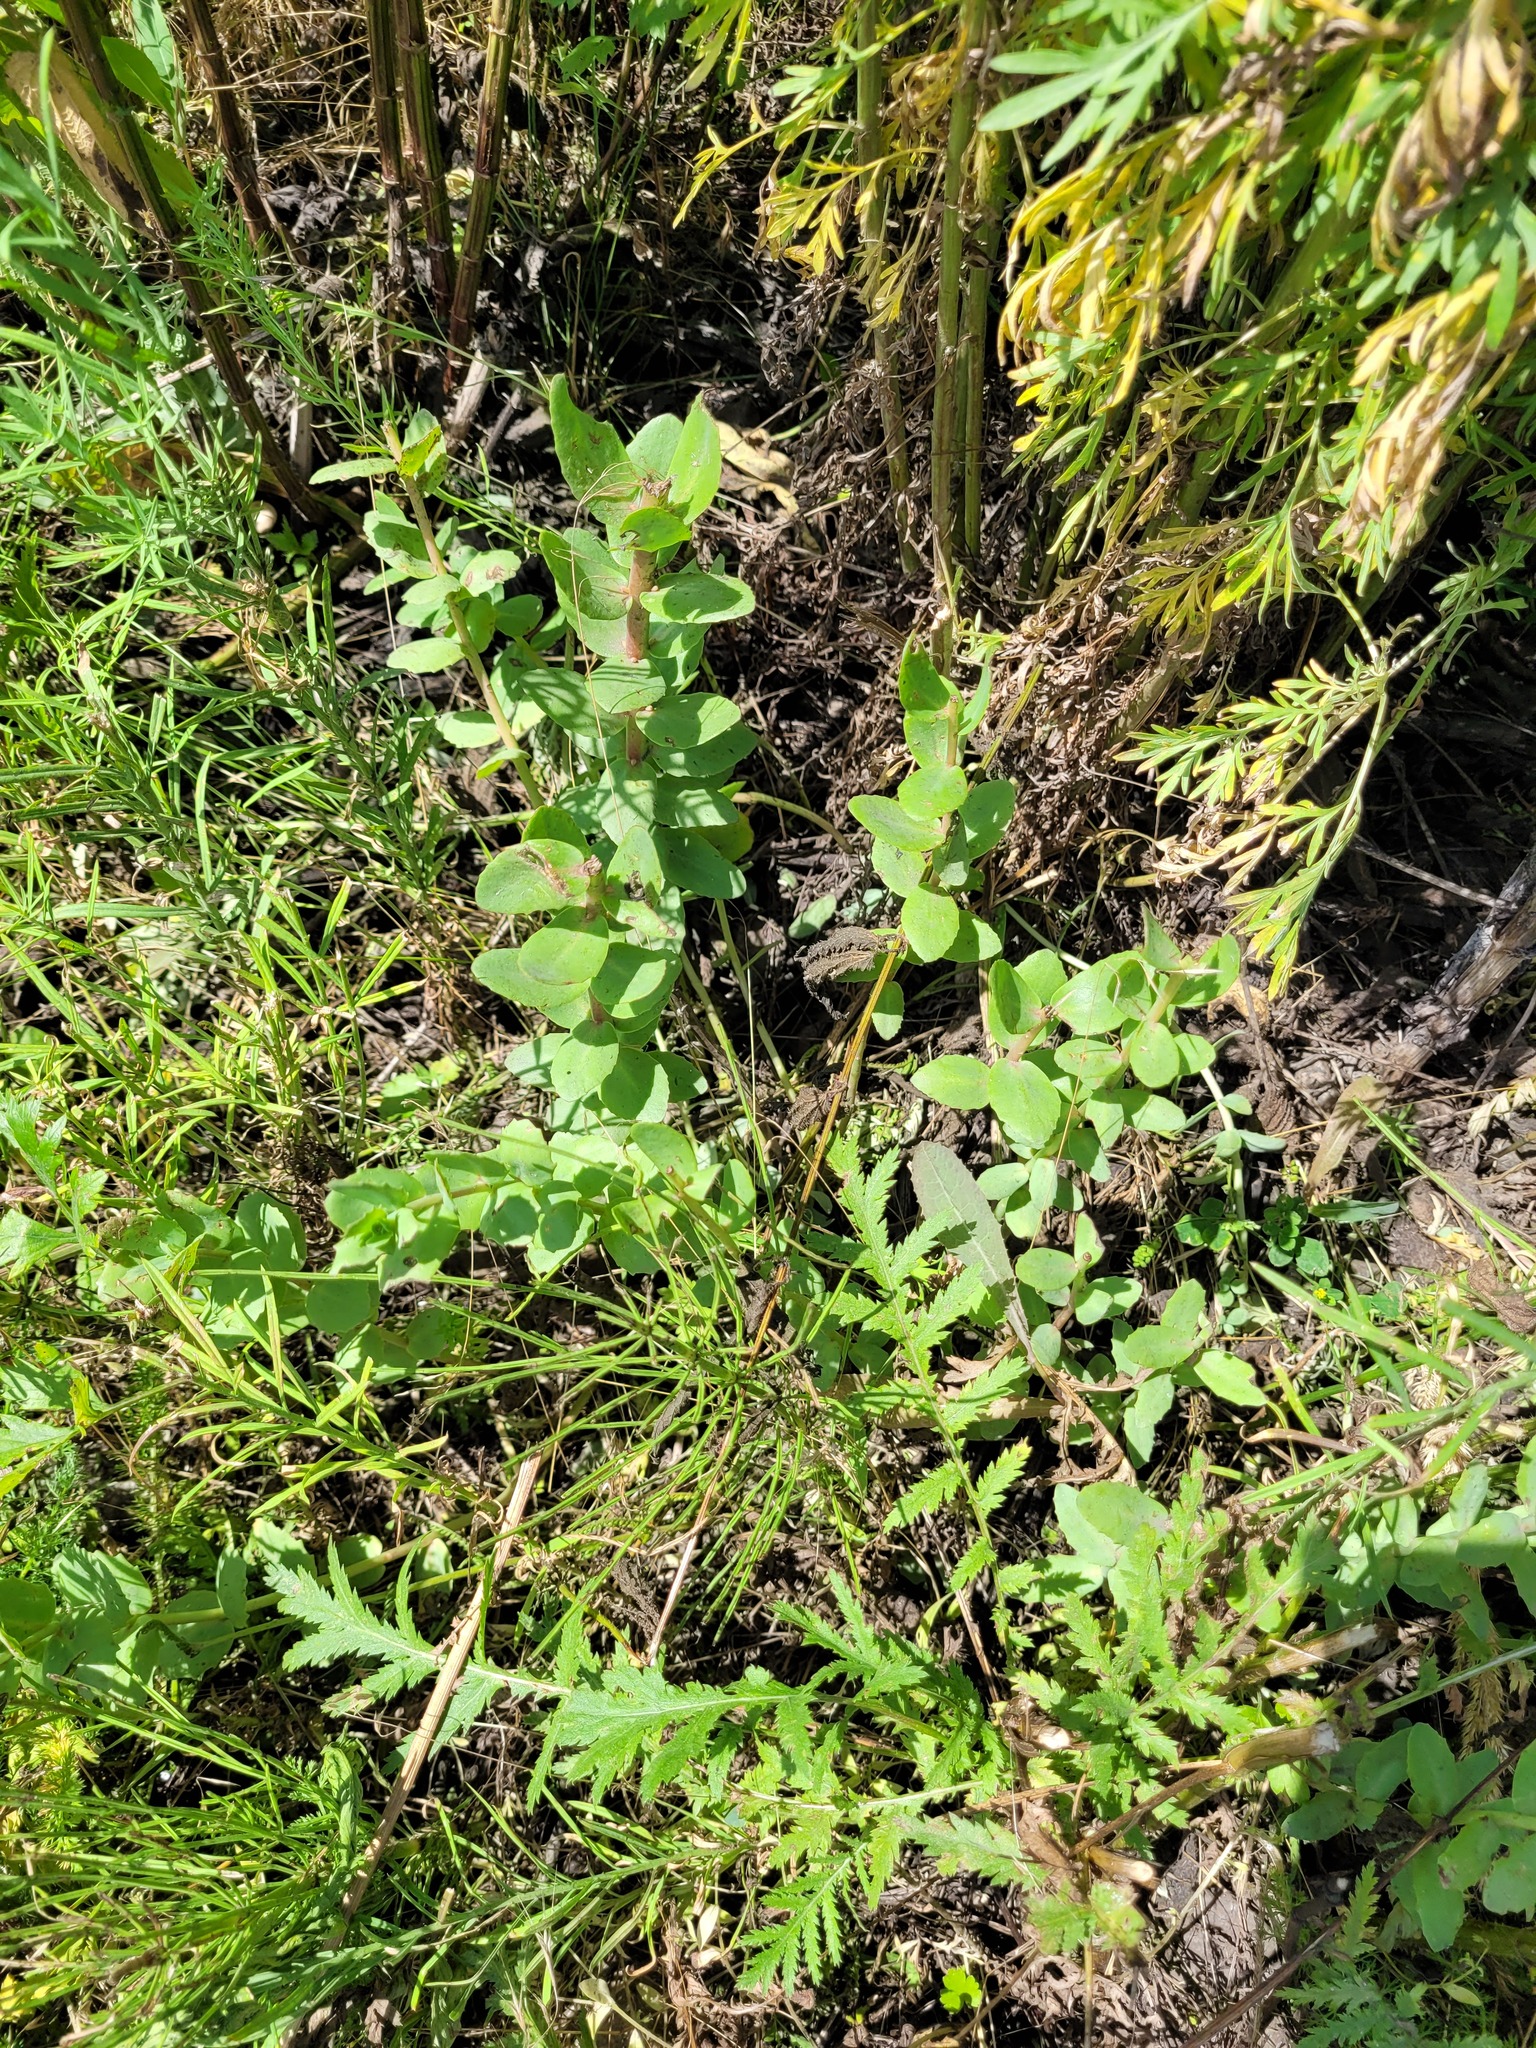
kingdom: Plantae
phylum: Tracheophyta
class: Magnoliopsida
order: Saxifragales
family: Crassulaceae
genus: Hylotelephium
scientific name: Hylotelephium maximum
